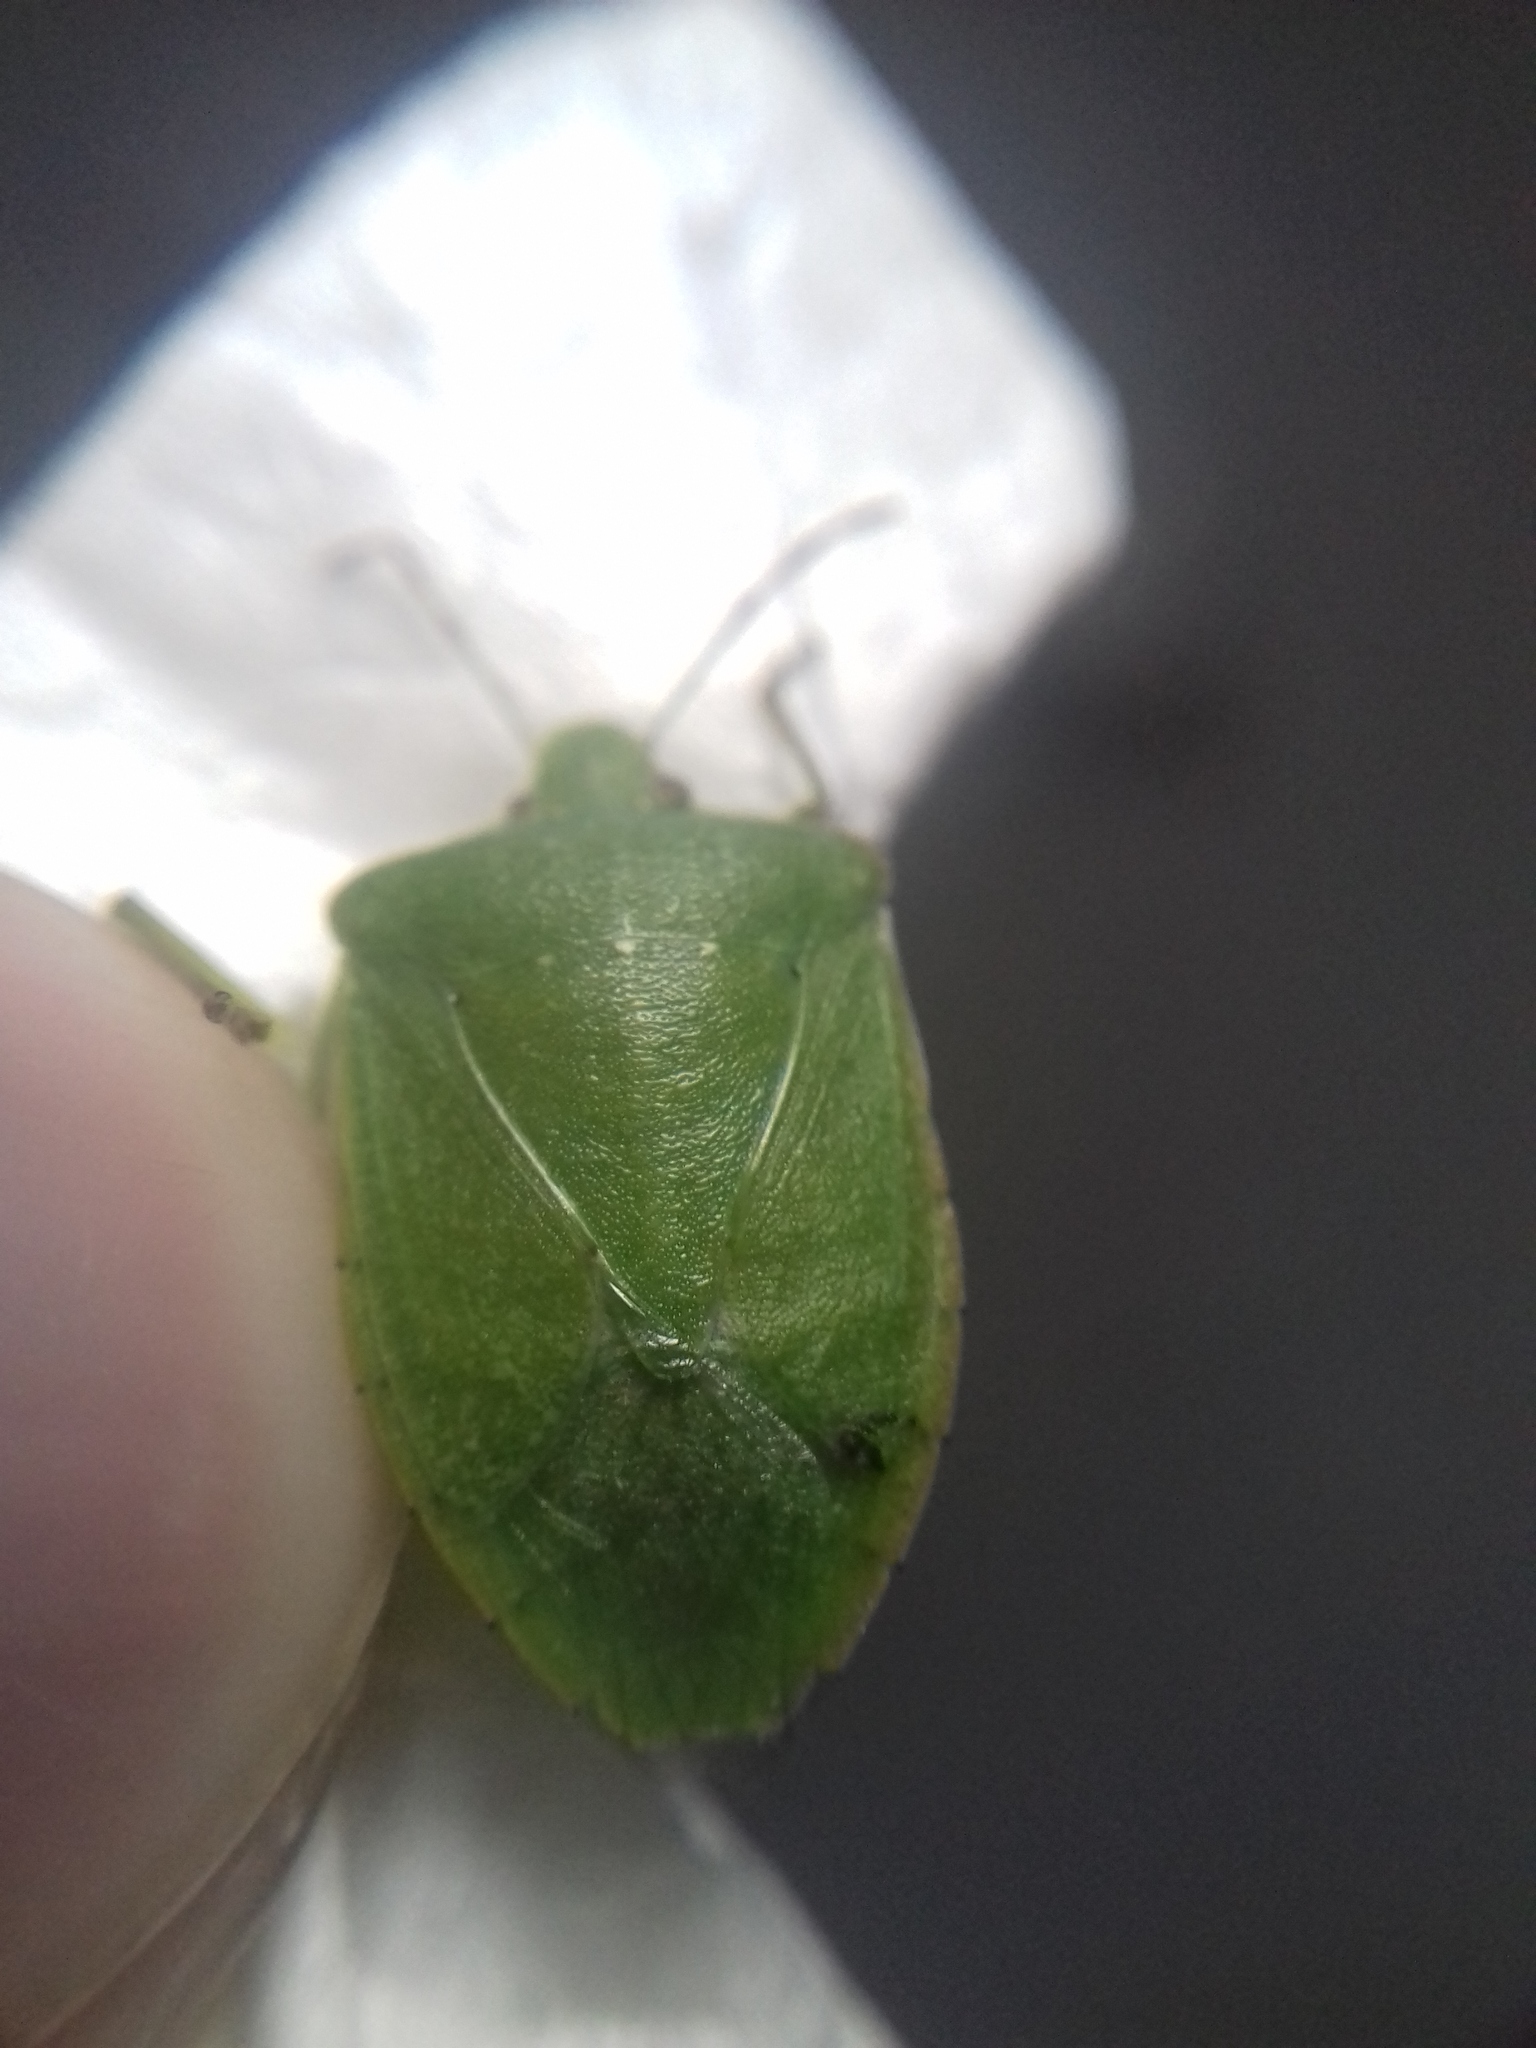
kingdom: Animalia
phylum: Arthropoda
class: Insecta
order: Hemiptera
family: Pentatomidae
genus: Nezara
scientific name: Nezara viridula
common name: Southern green stink bug
